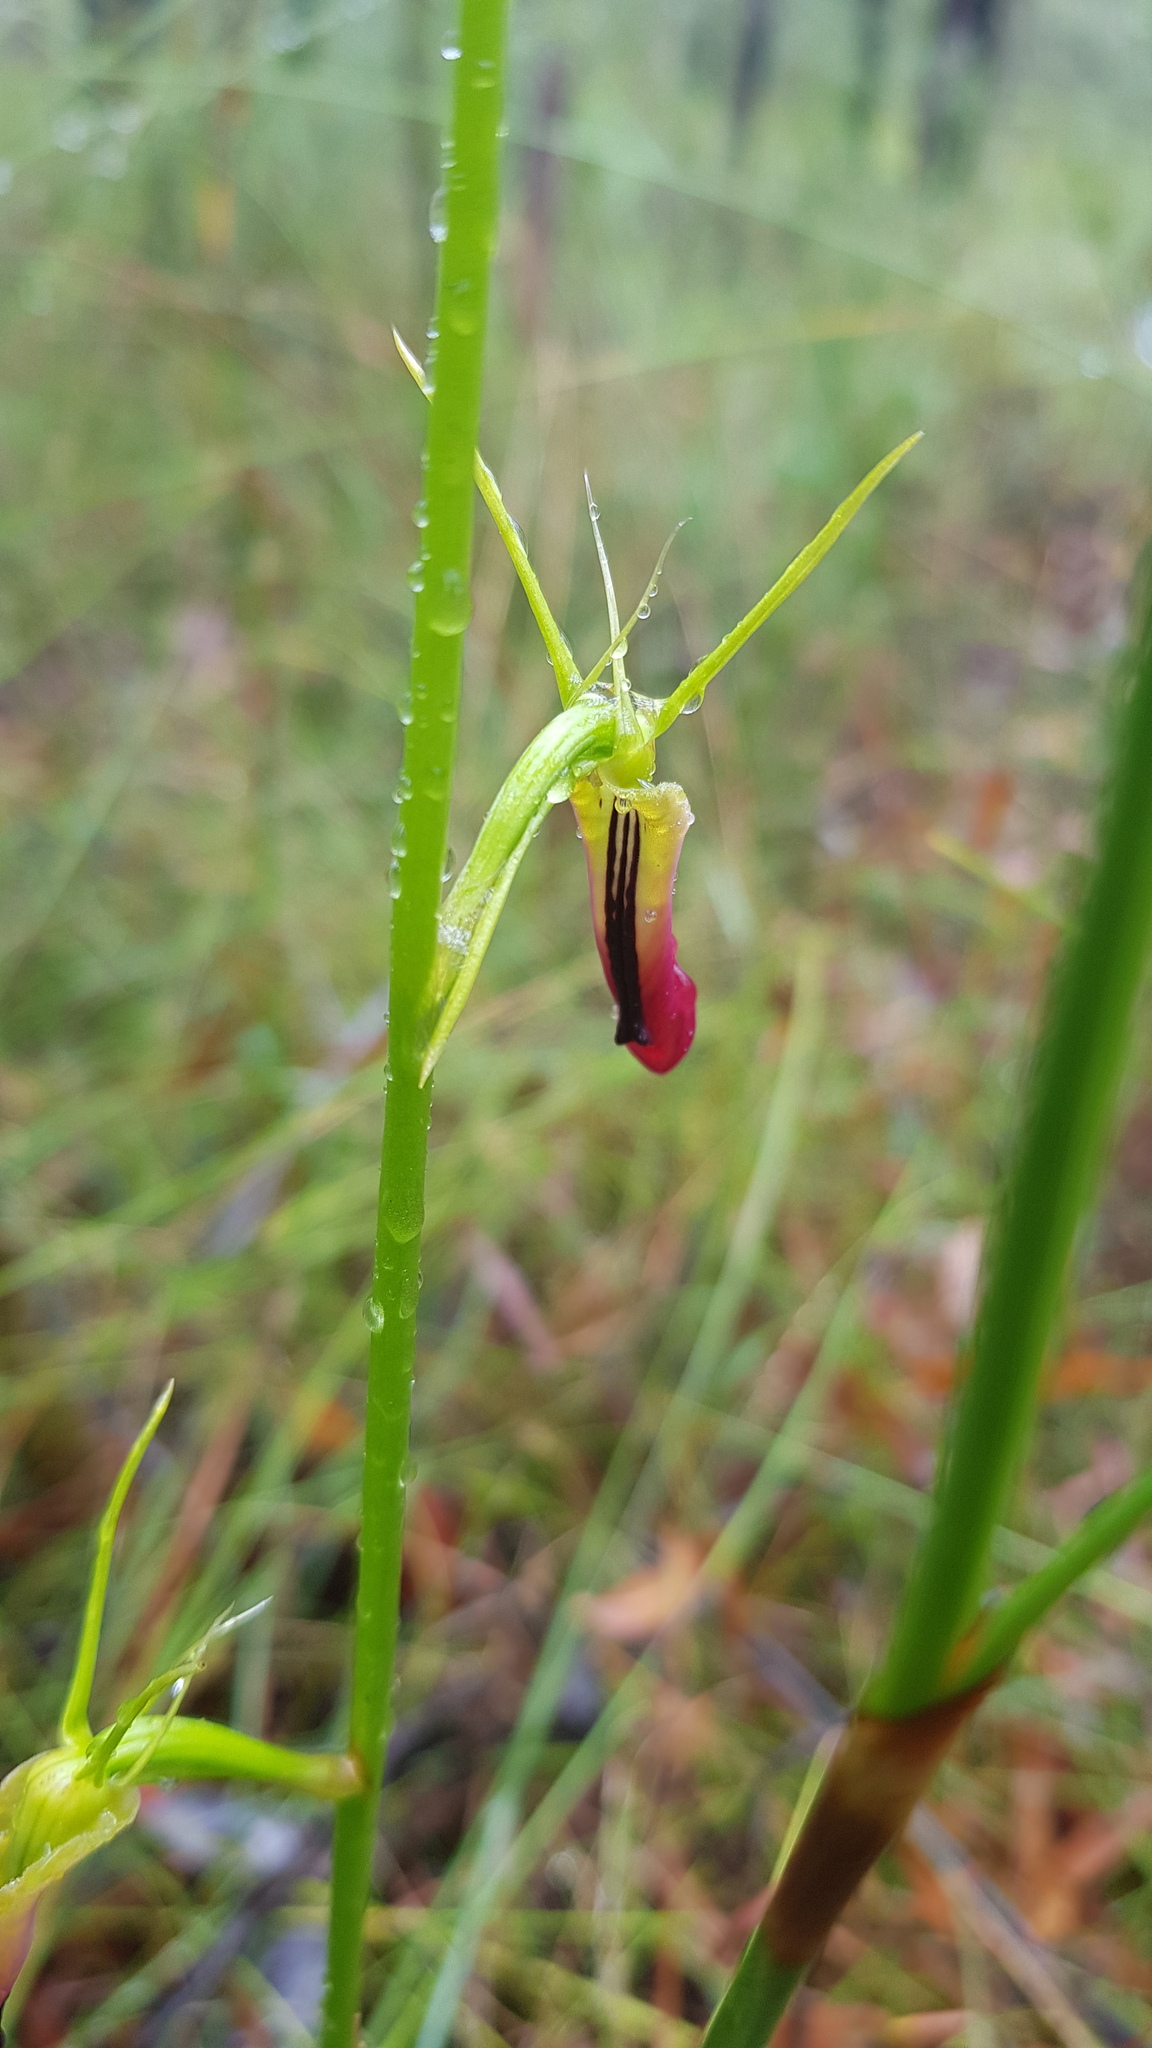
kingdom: Plantae
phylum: Tracheophyta
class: Liliopsida
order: Asparagales
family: Orchidaceae
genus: Cryptostylis
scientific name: Cryptostylis subulata
